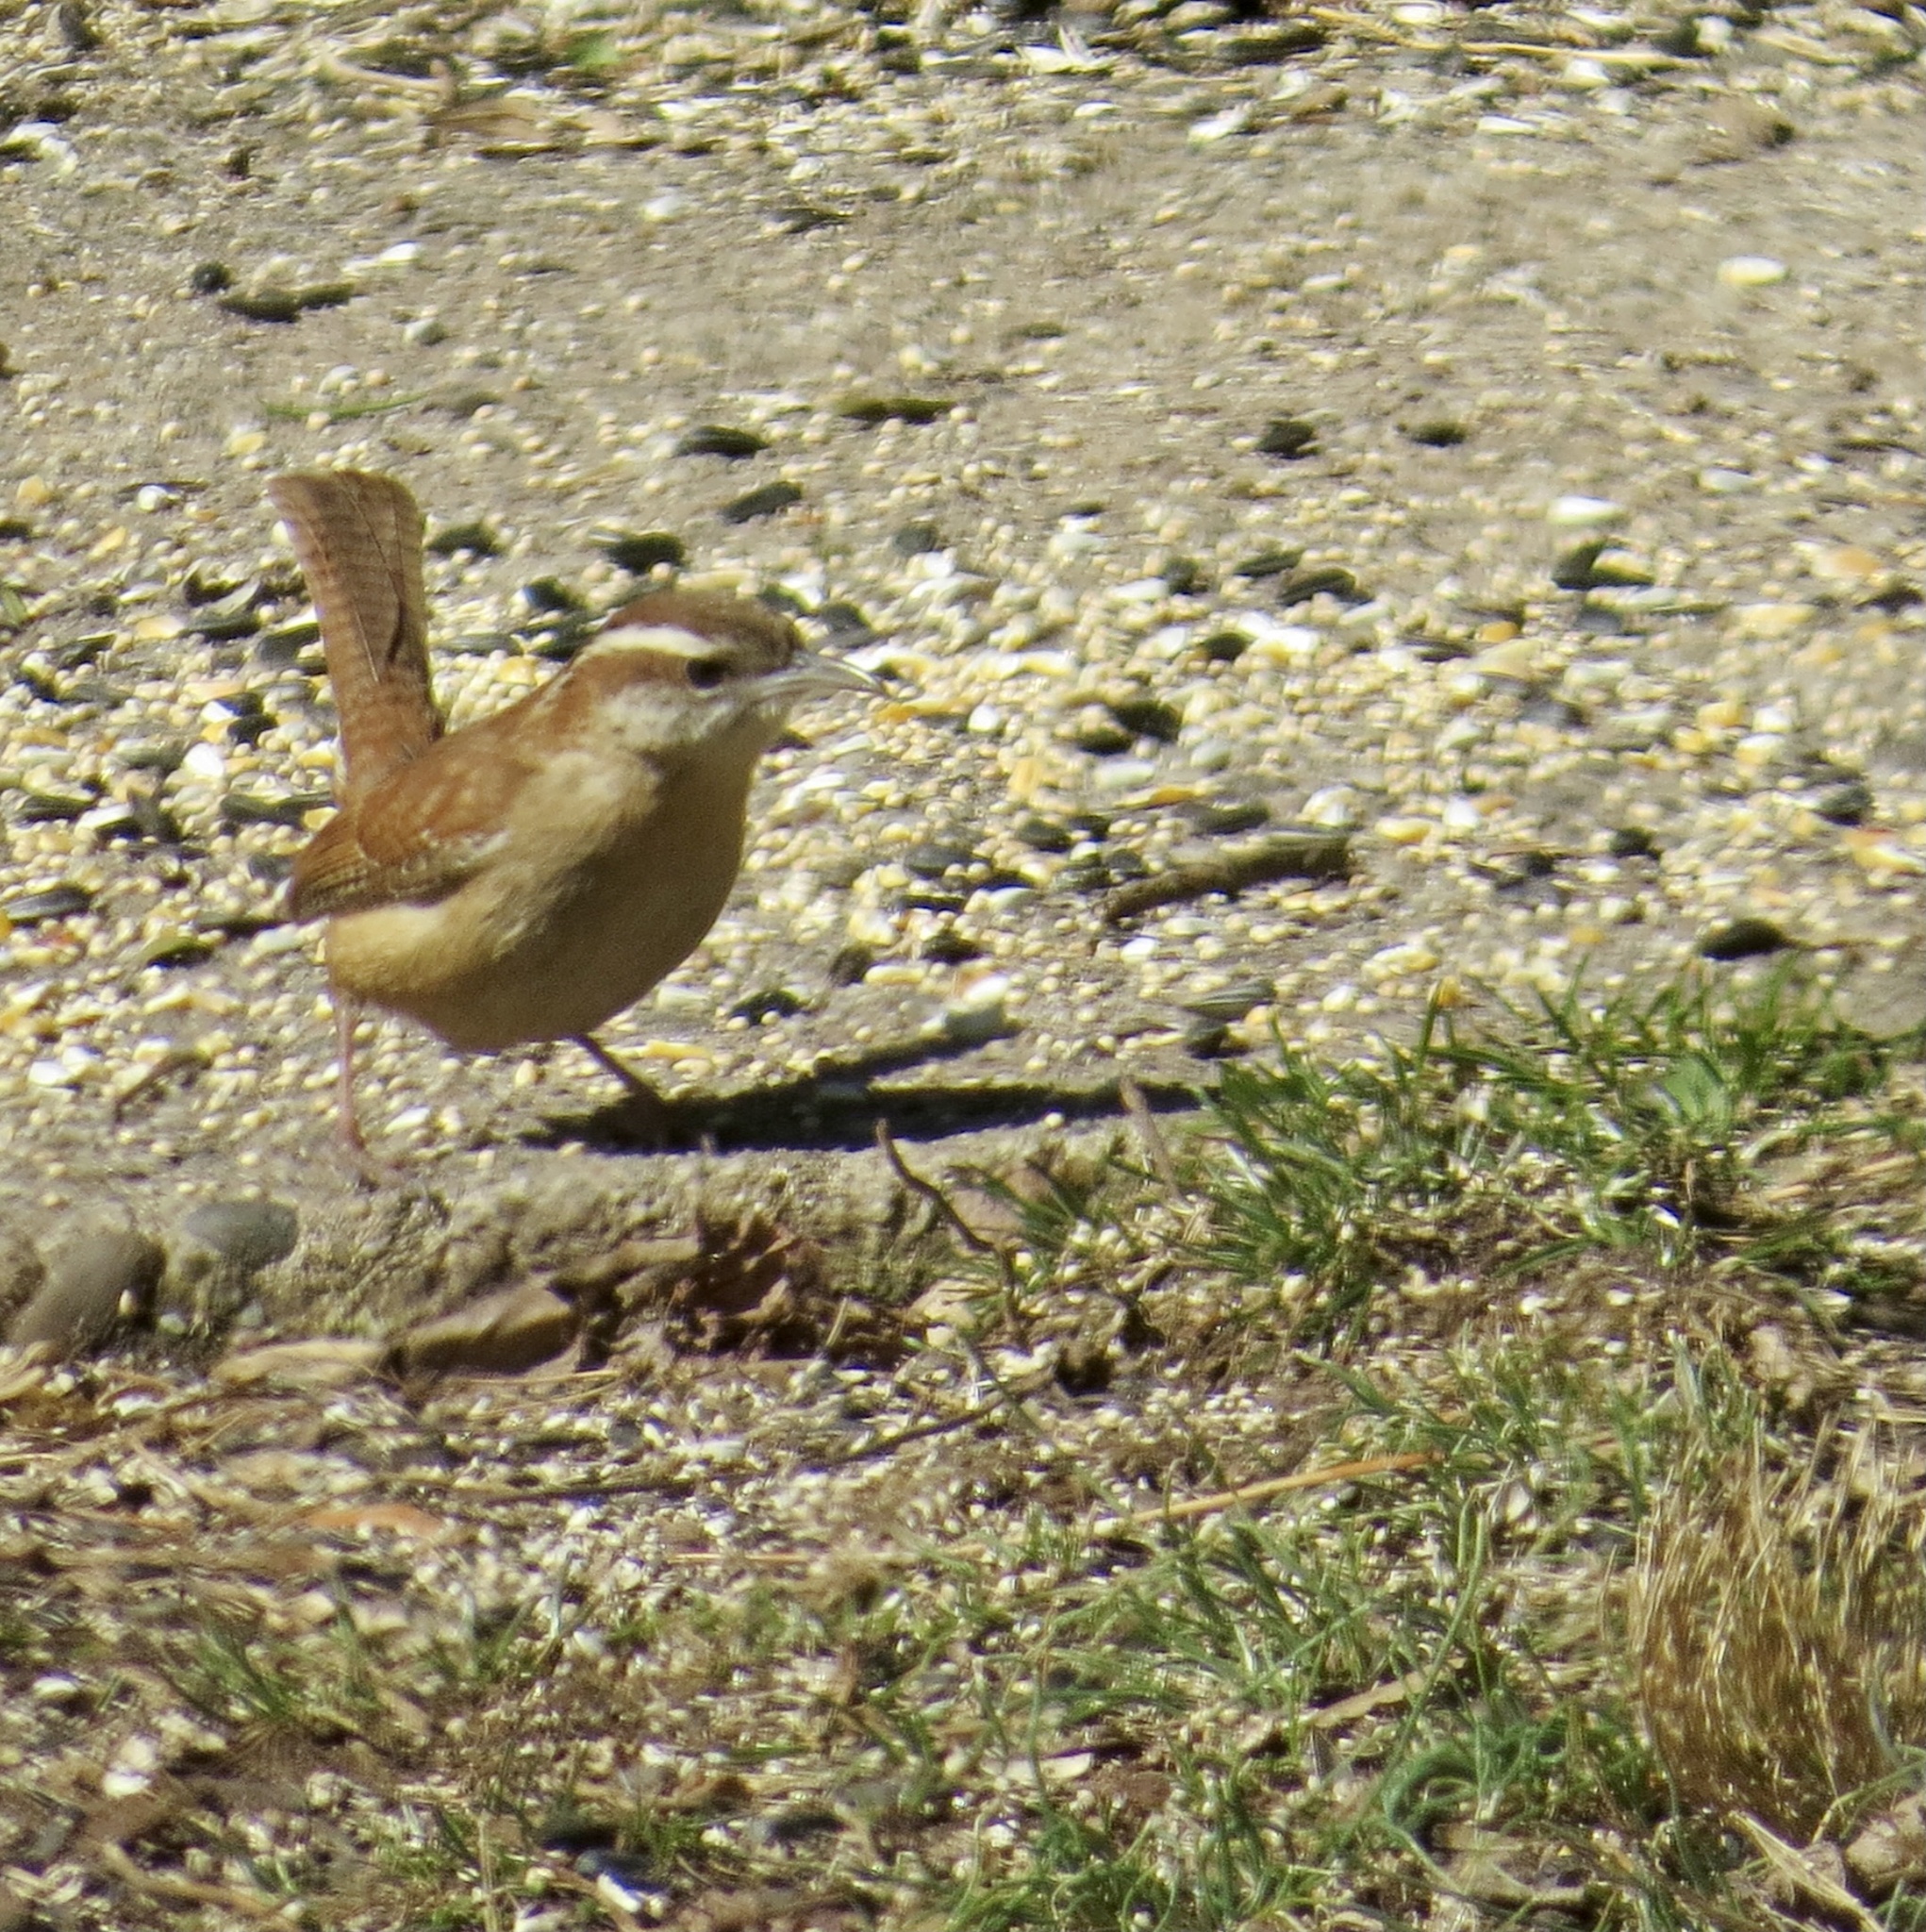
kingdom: Animalia
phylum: Chordata
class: Aves
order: Passeriformes
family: Troglodytidae
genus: Thryothorus
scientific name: Thryothorus ludovicianus
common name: Carolina wren
